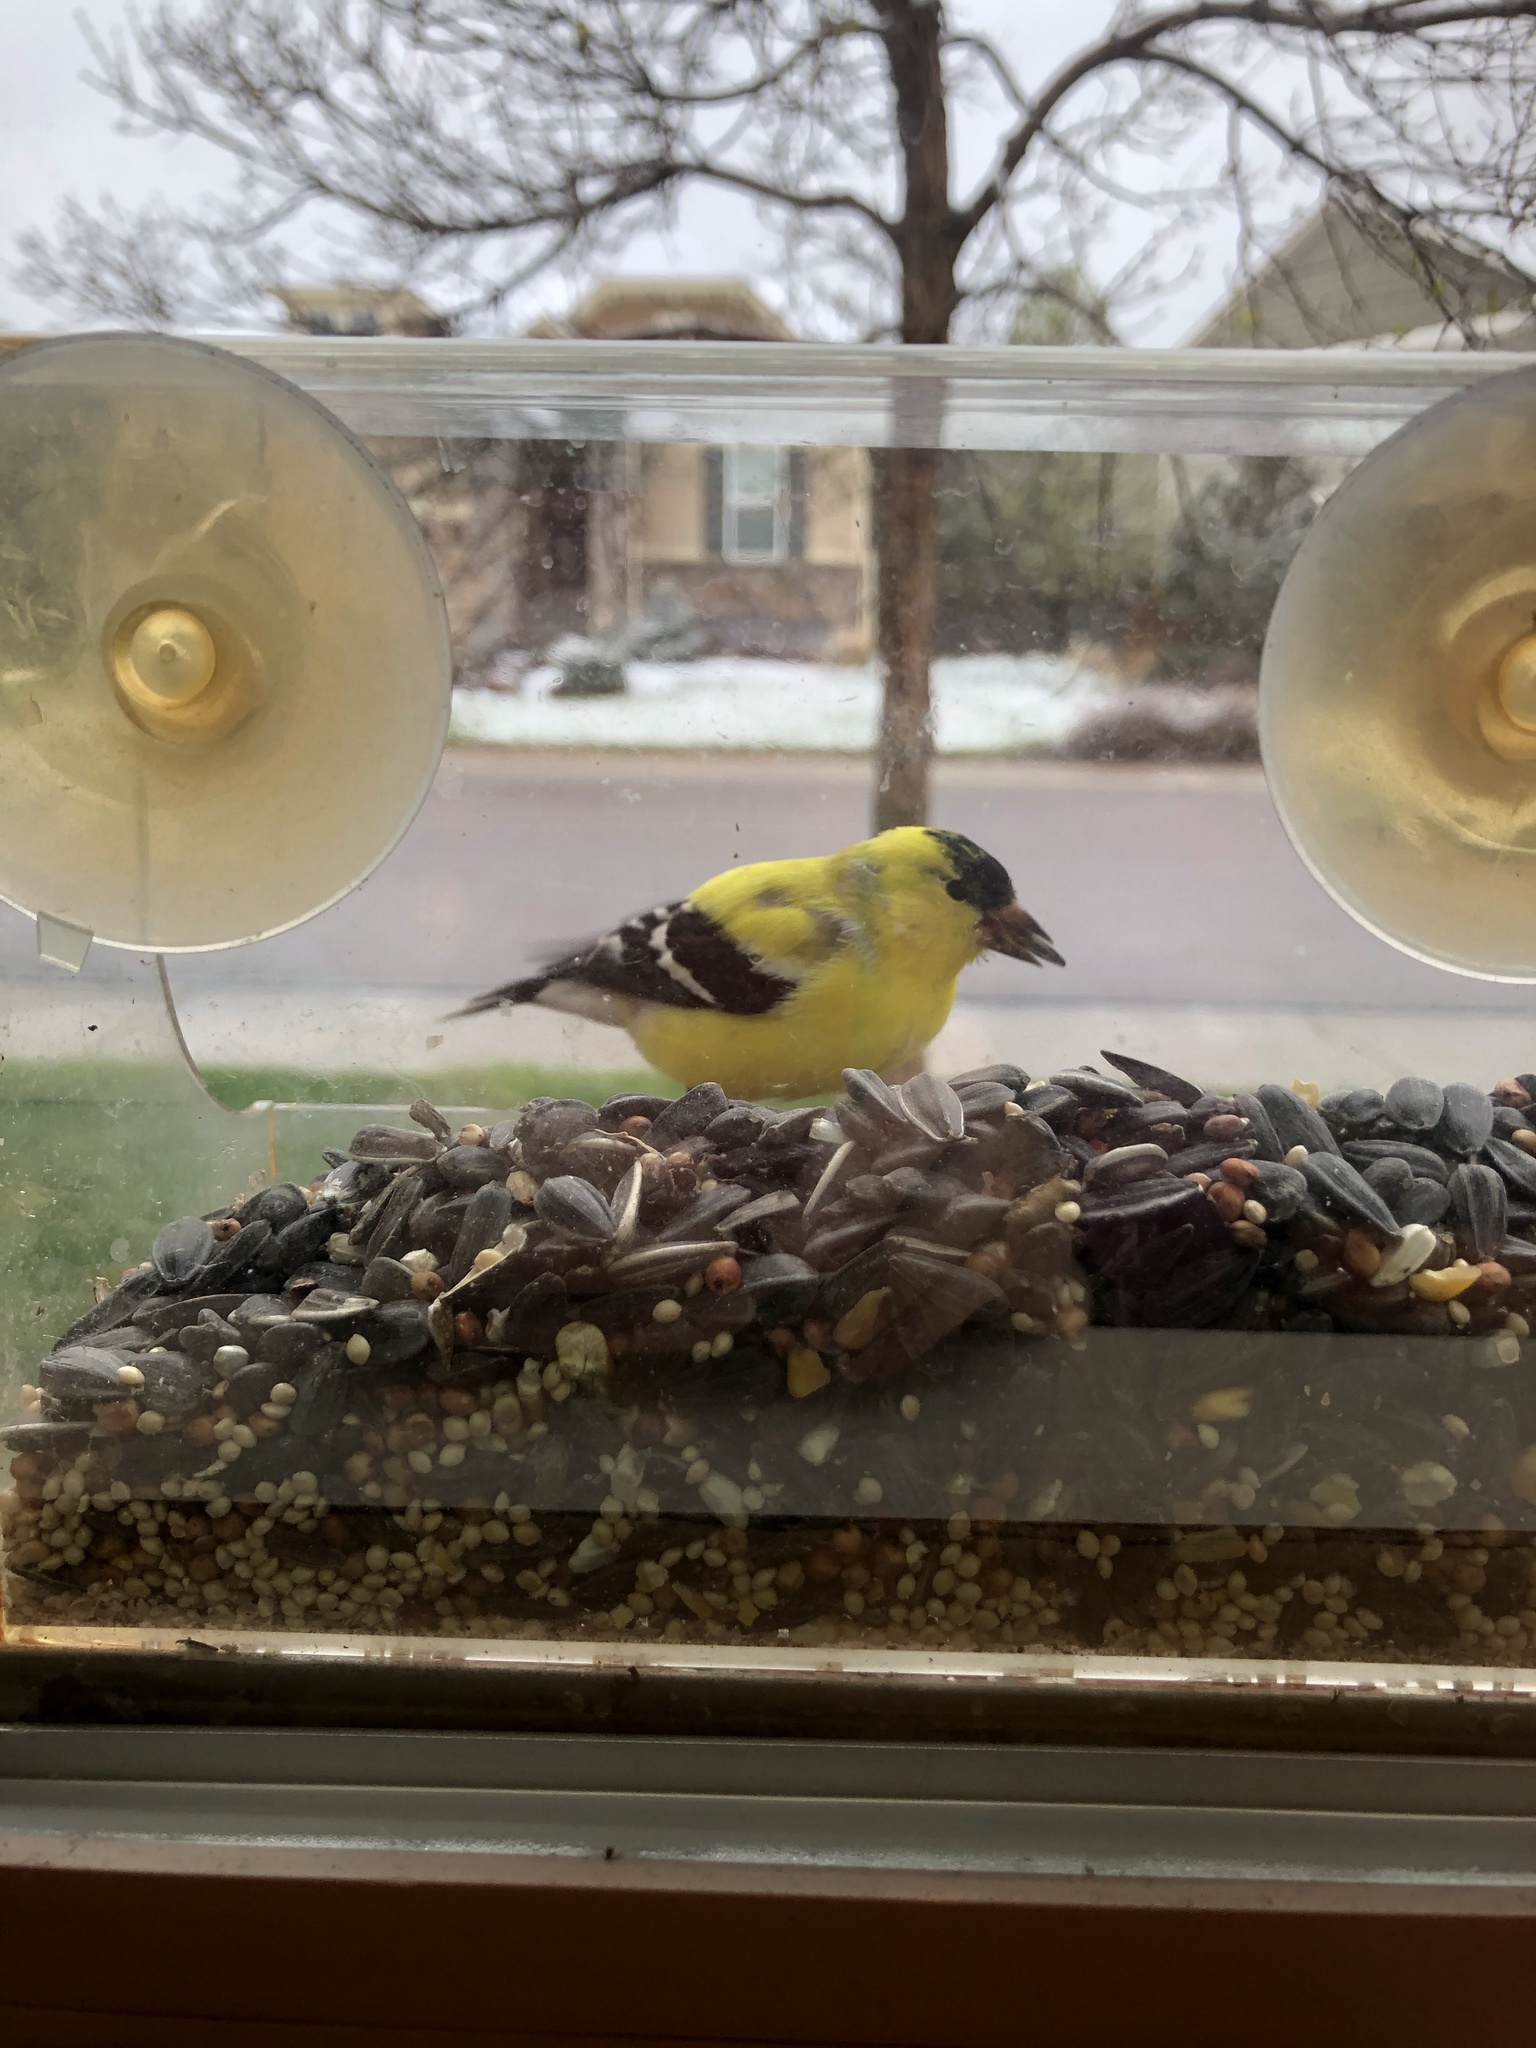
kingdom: Animalia
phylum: Chordata
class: Aves
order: Passeriformes
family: Fringillidae
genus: Spinus
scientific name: Spinus tristis
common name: American goldfinch
